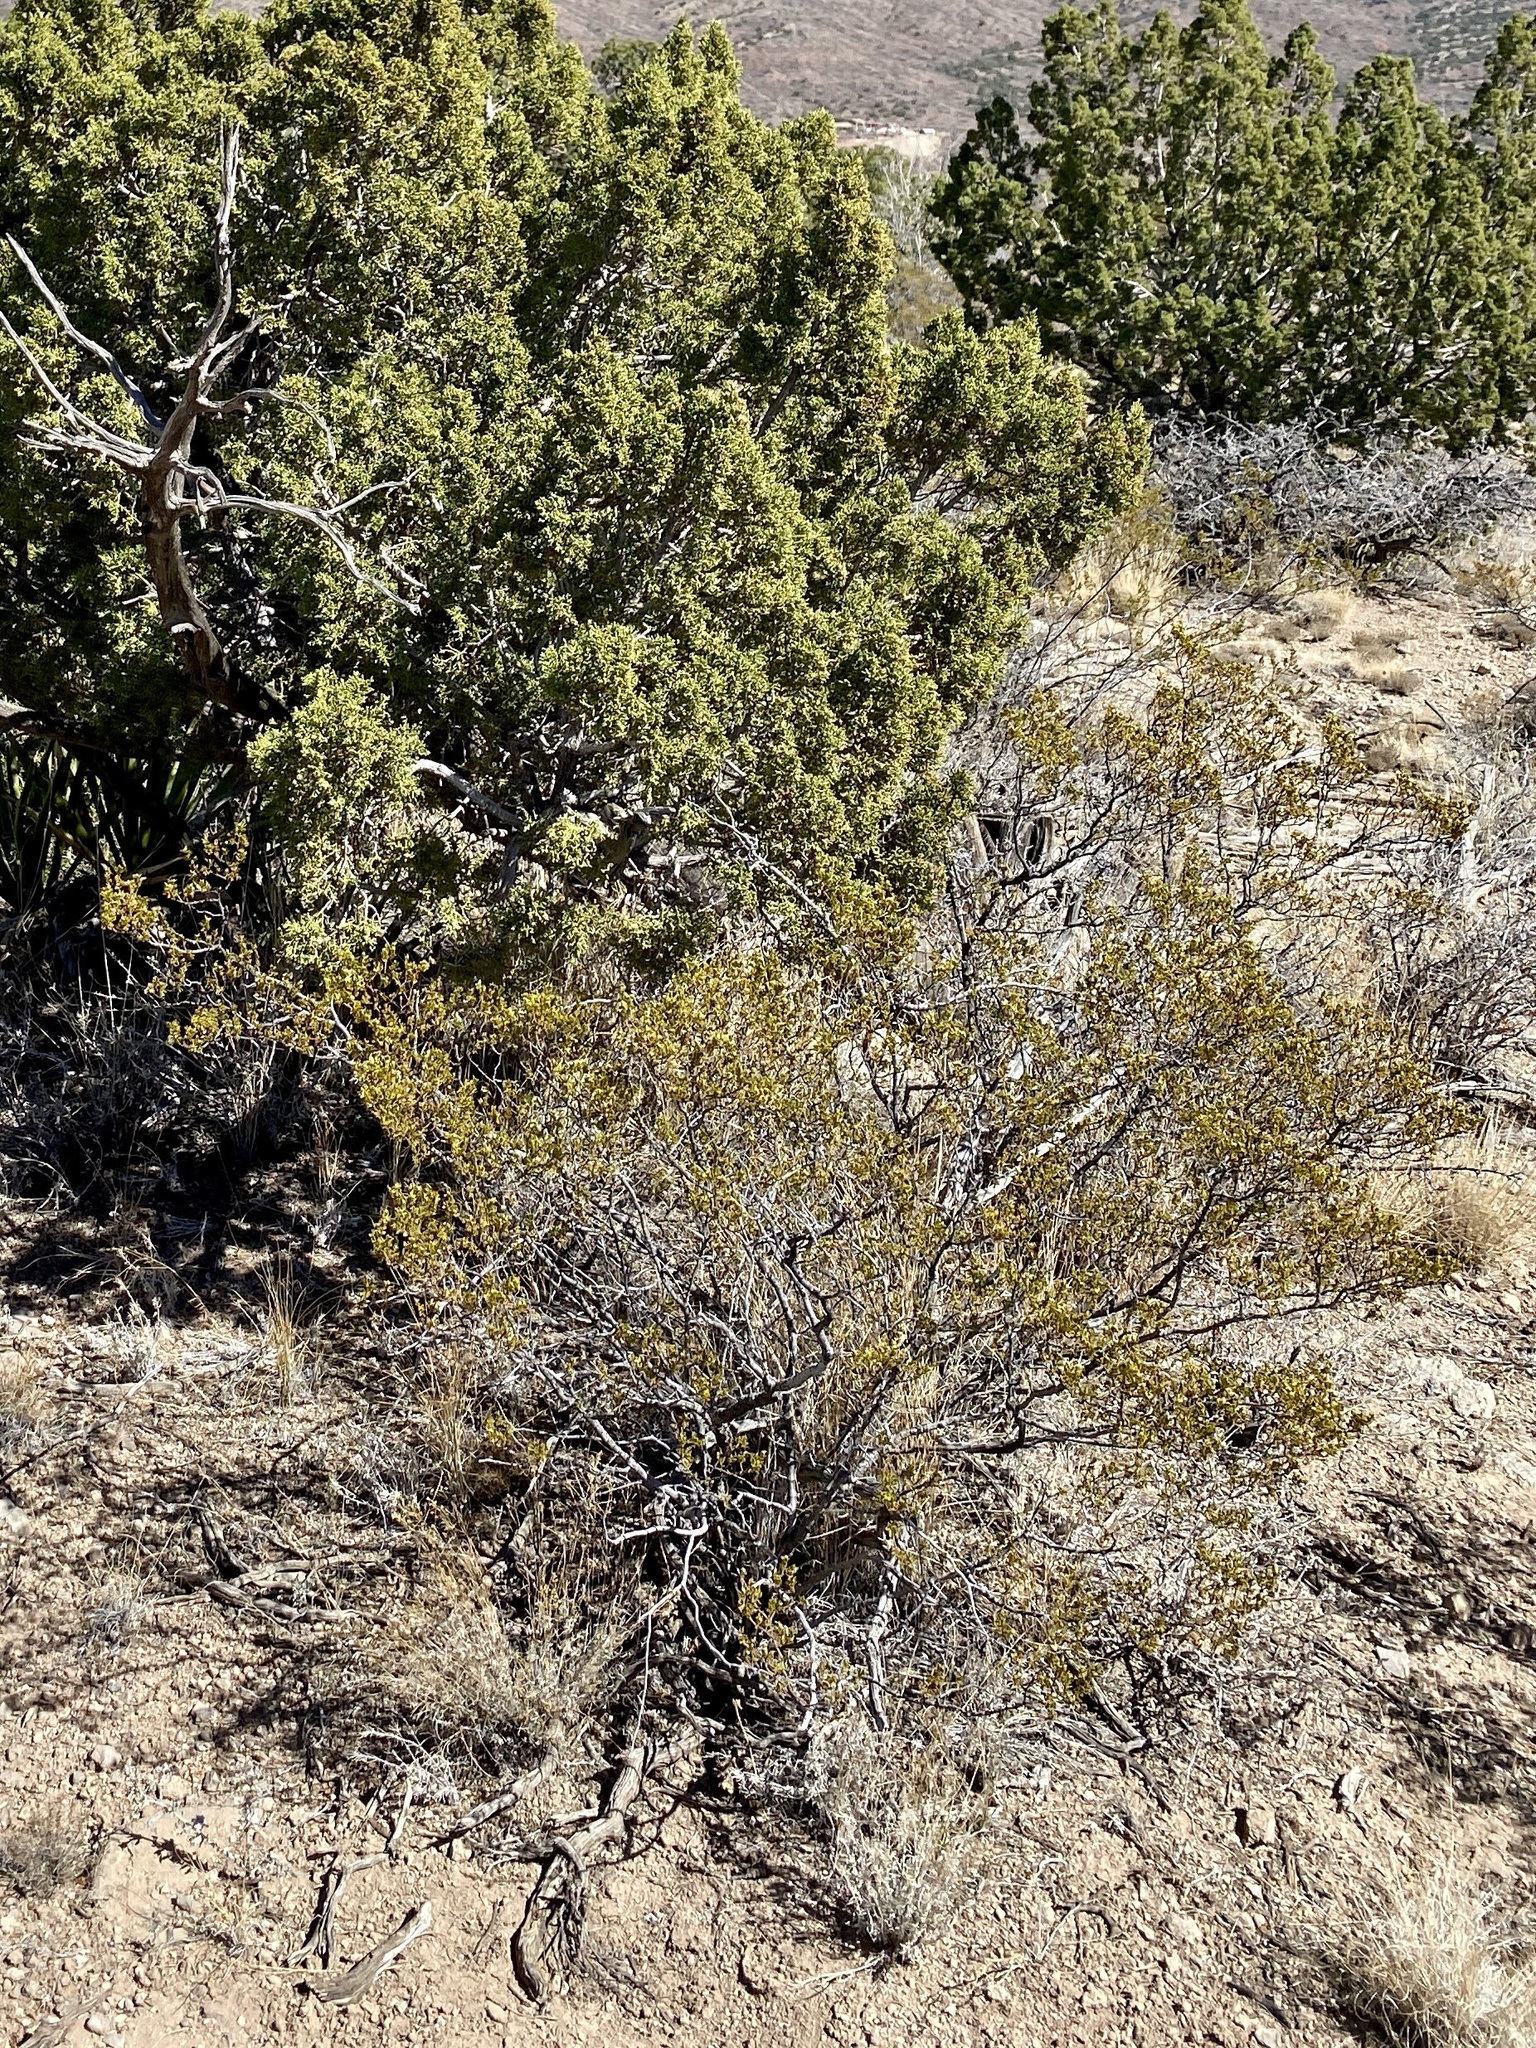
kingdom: Plantae
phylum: Tracheophyta
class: Magnoliopsida
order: Zygophyllales
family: Zygophyllaceae
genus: Larrea
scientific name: Larrea tridentata
